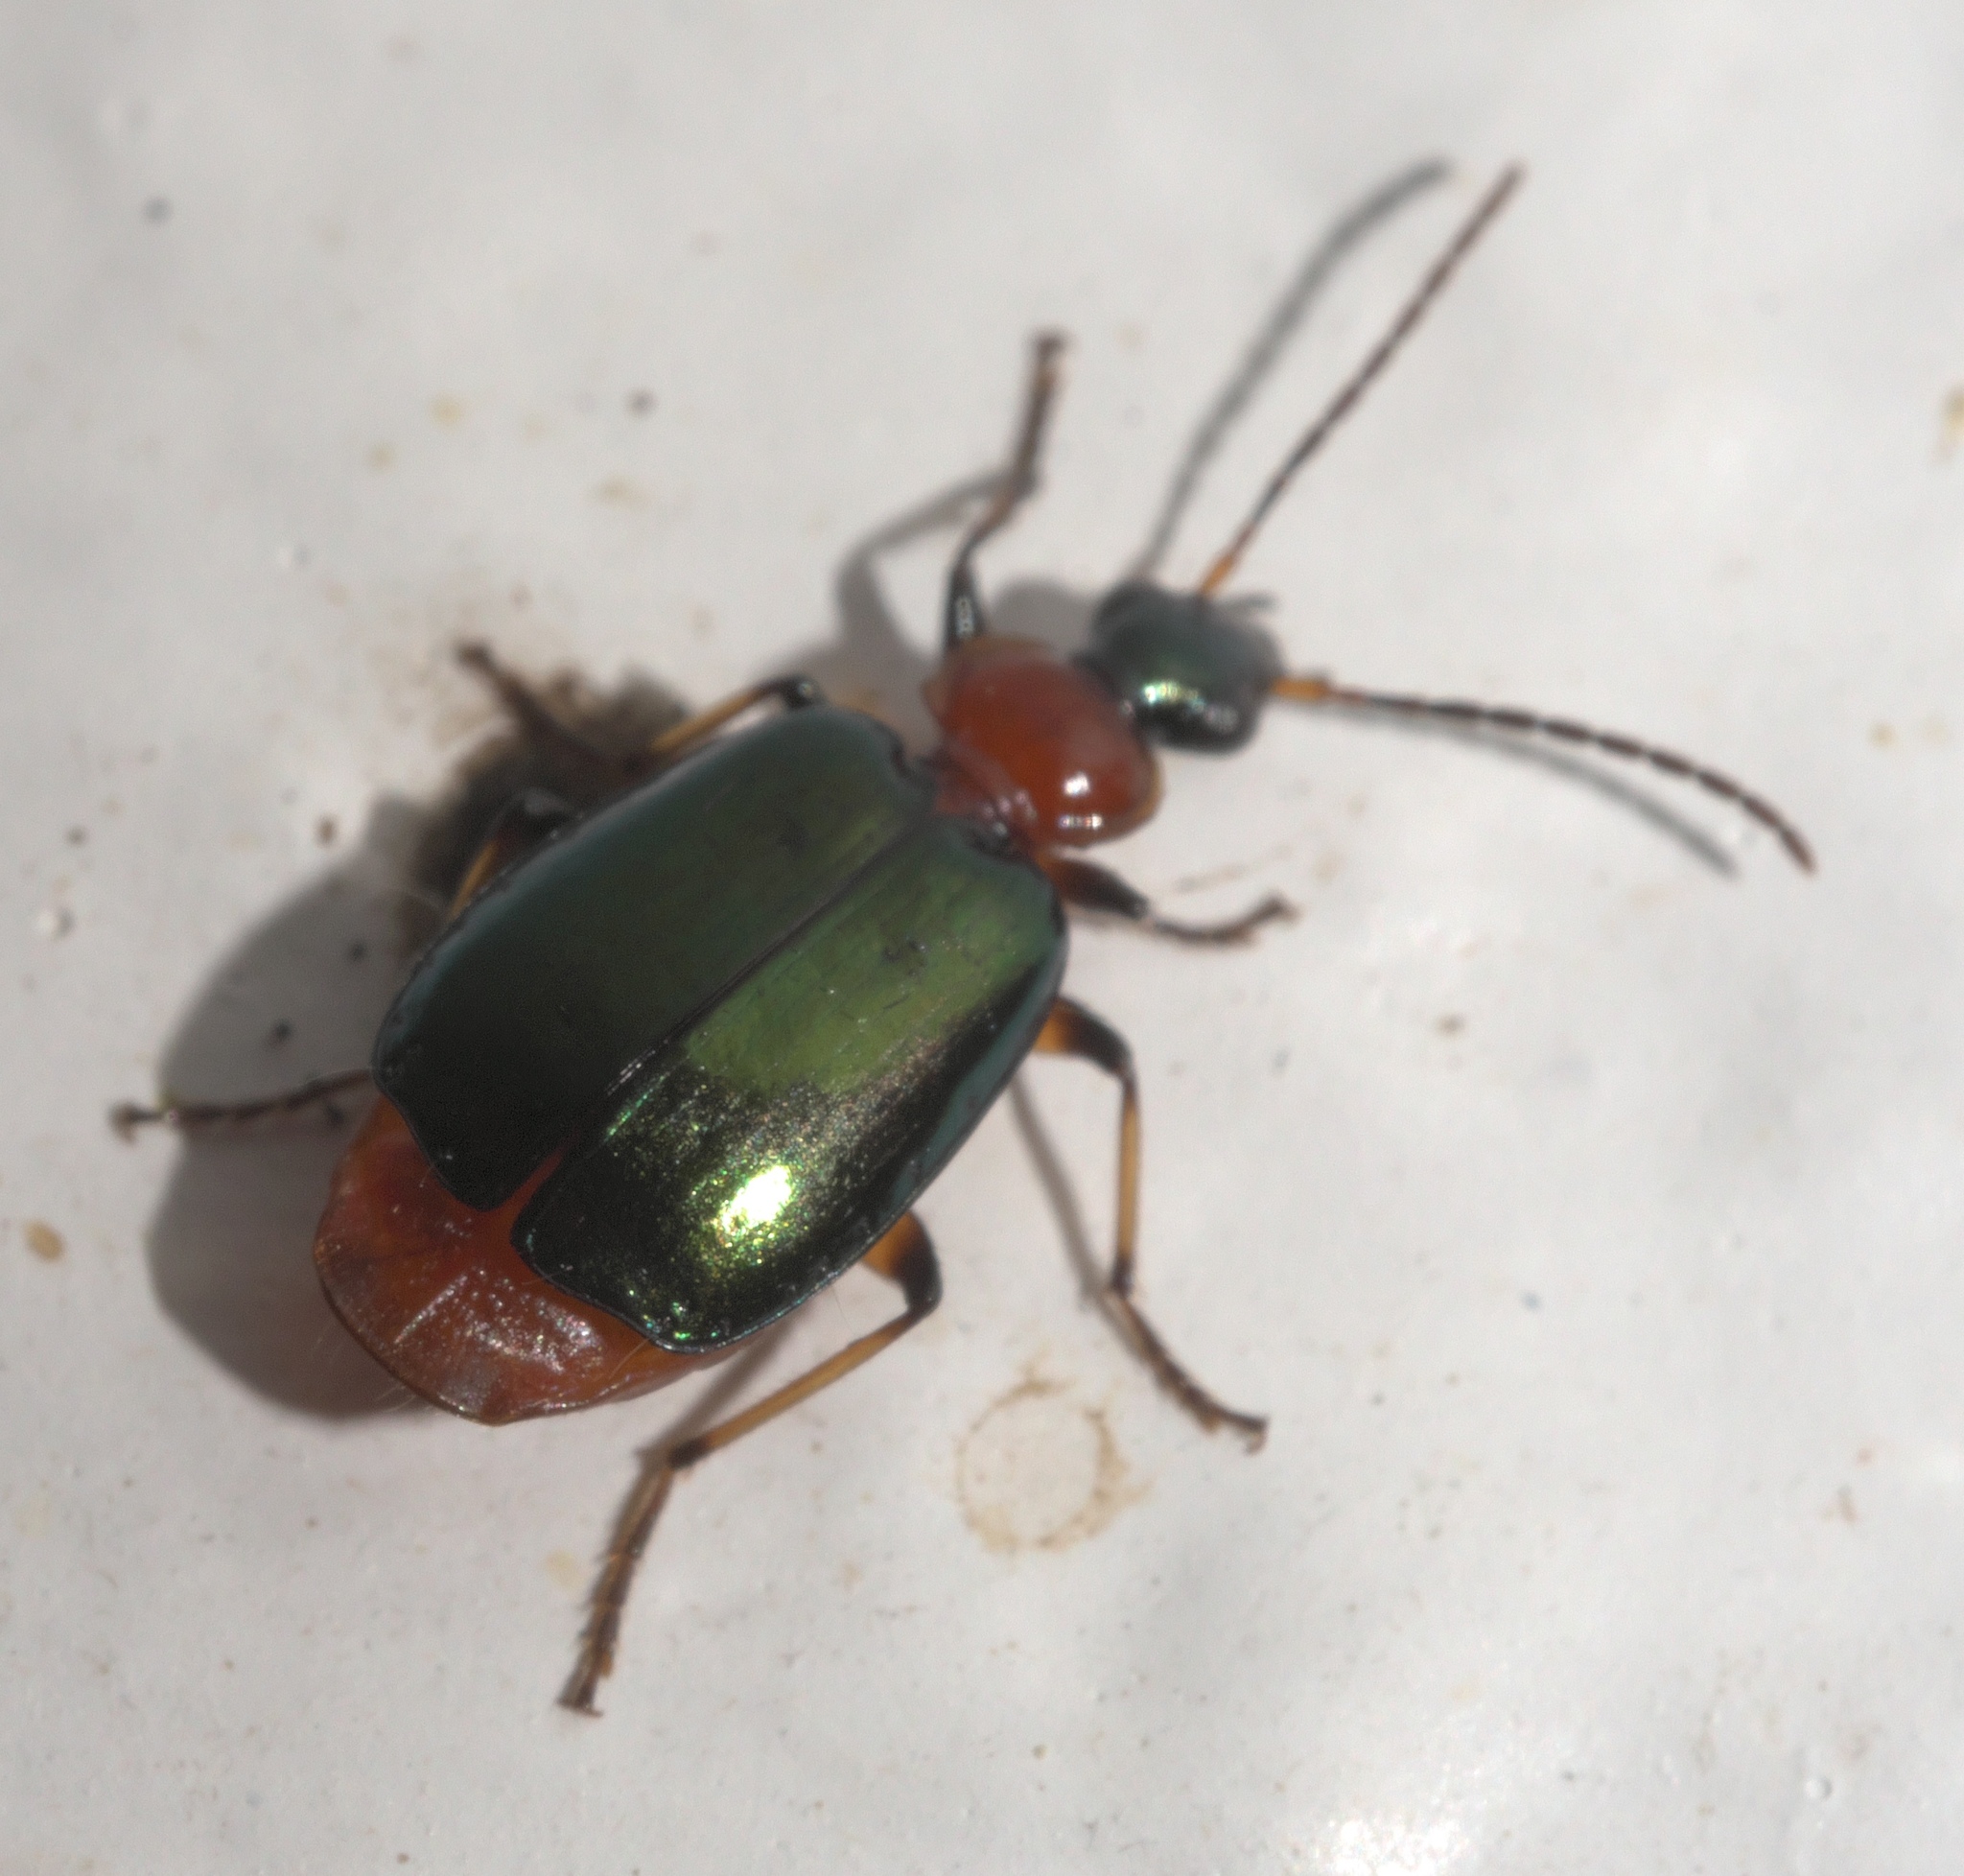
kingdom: Animalia
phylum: Arthropoda
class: Insecta
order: Coleoptera
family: Carabidae
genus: Lebia
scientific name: Lebia viridipennis
